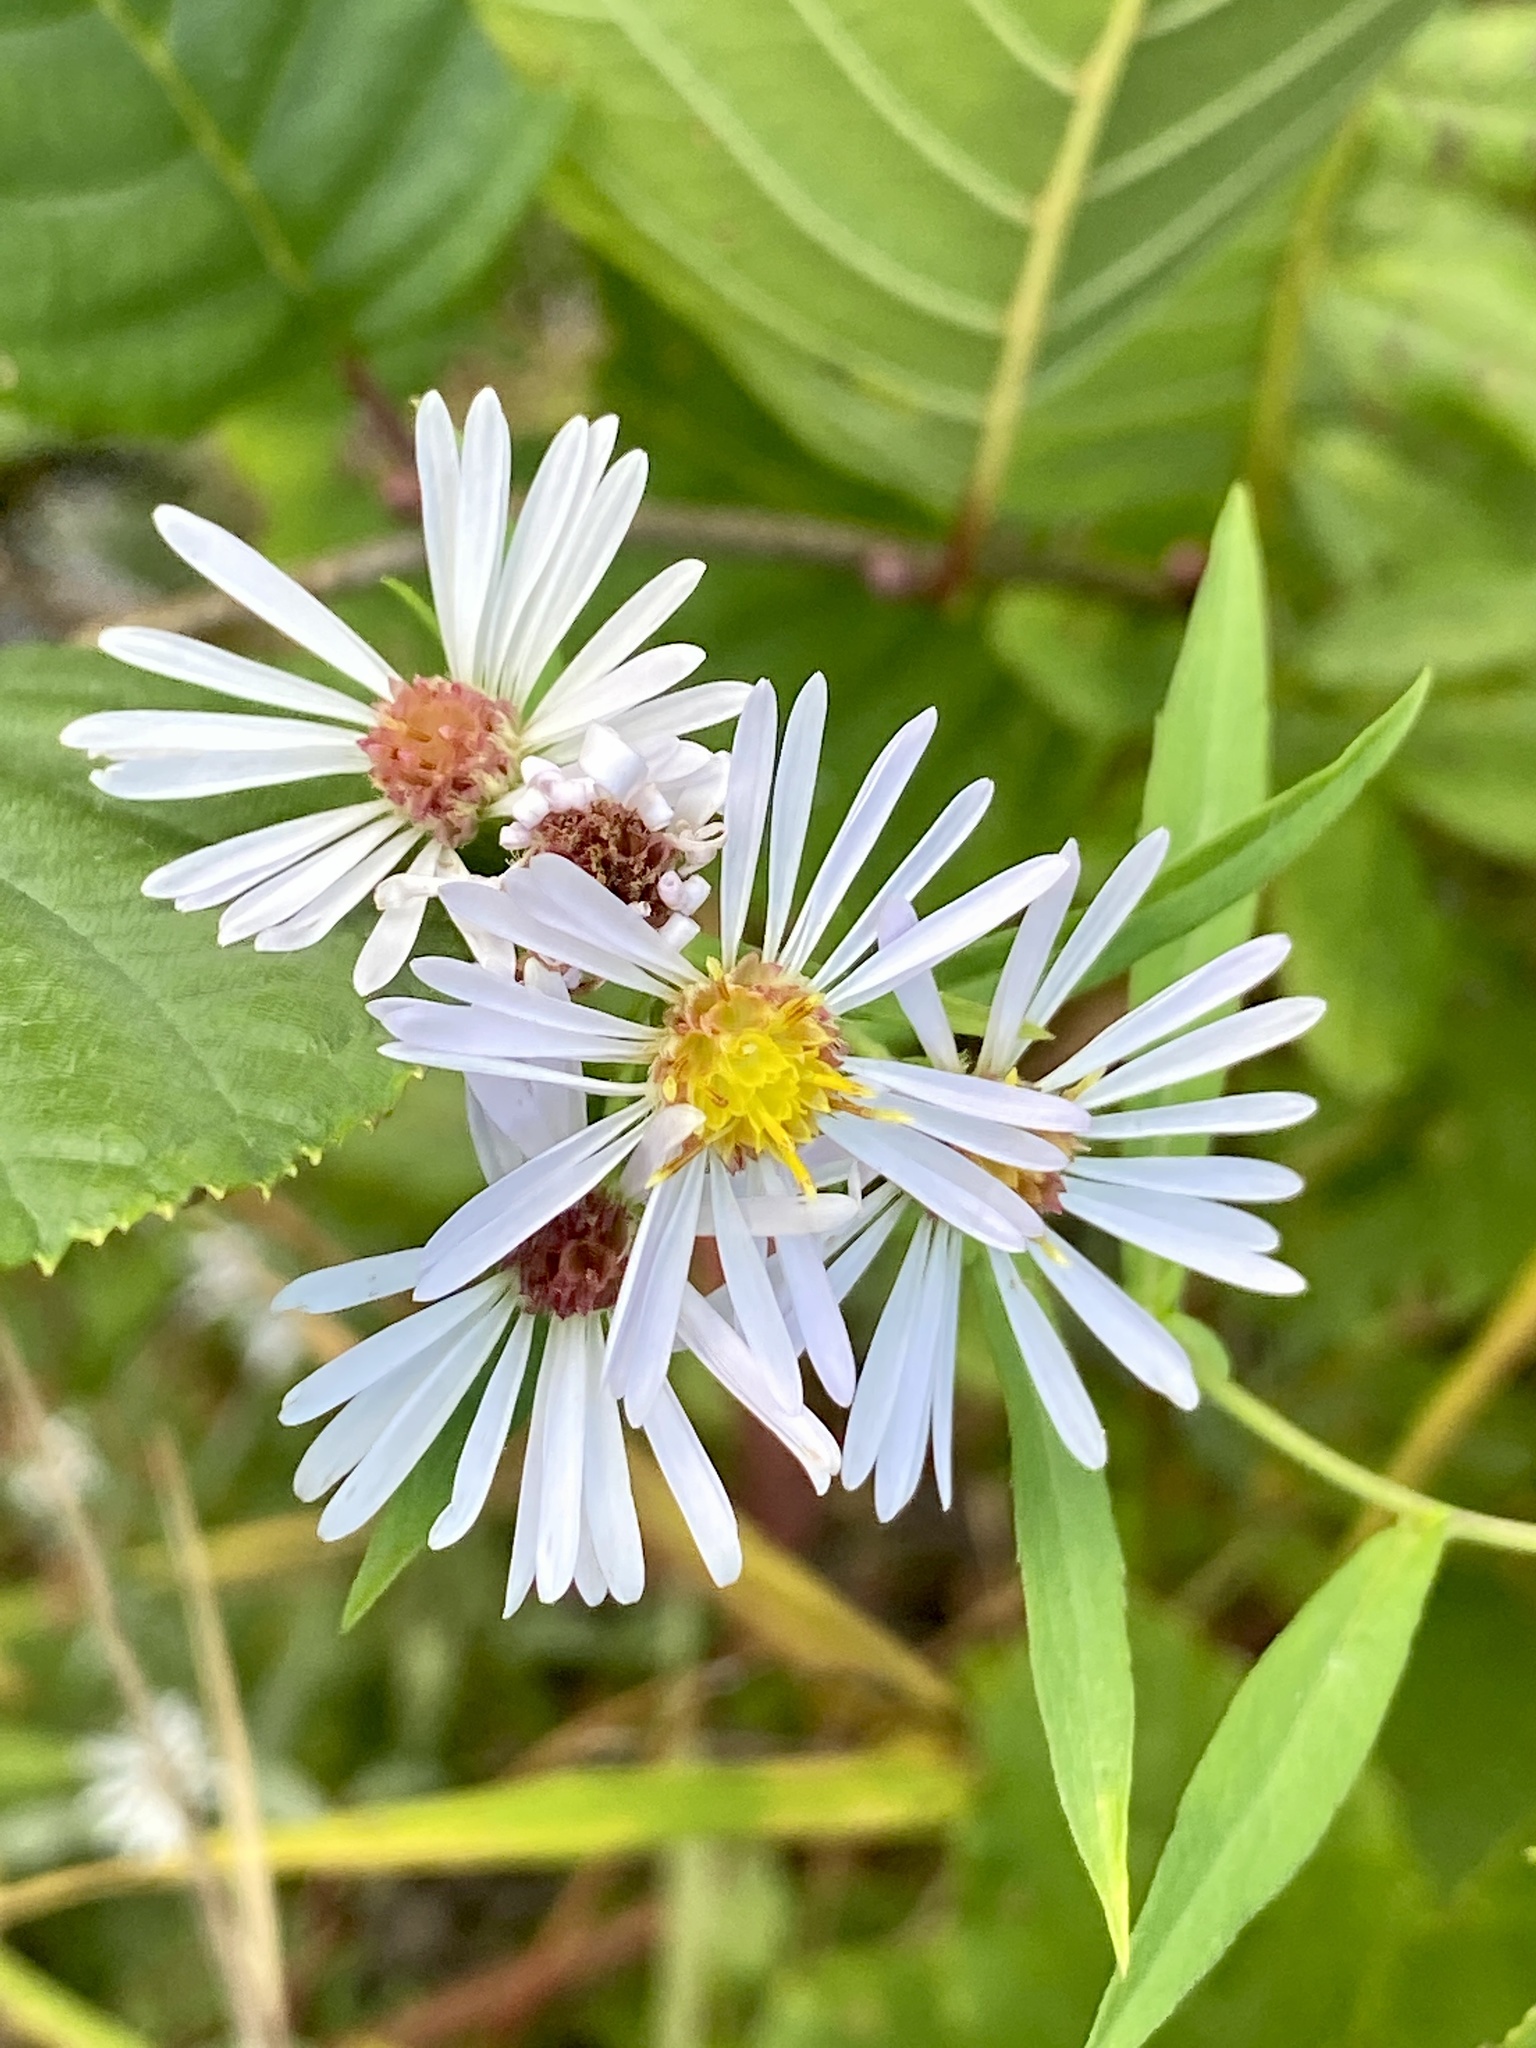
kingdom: Plantae
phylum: Tracheophyta
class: Magnoliopsida
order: Asterales
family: Asteraceae
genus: Symphyotrichum
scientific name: Symphyotrichum lanceolatum
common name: Panicled aster
